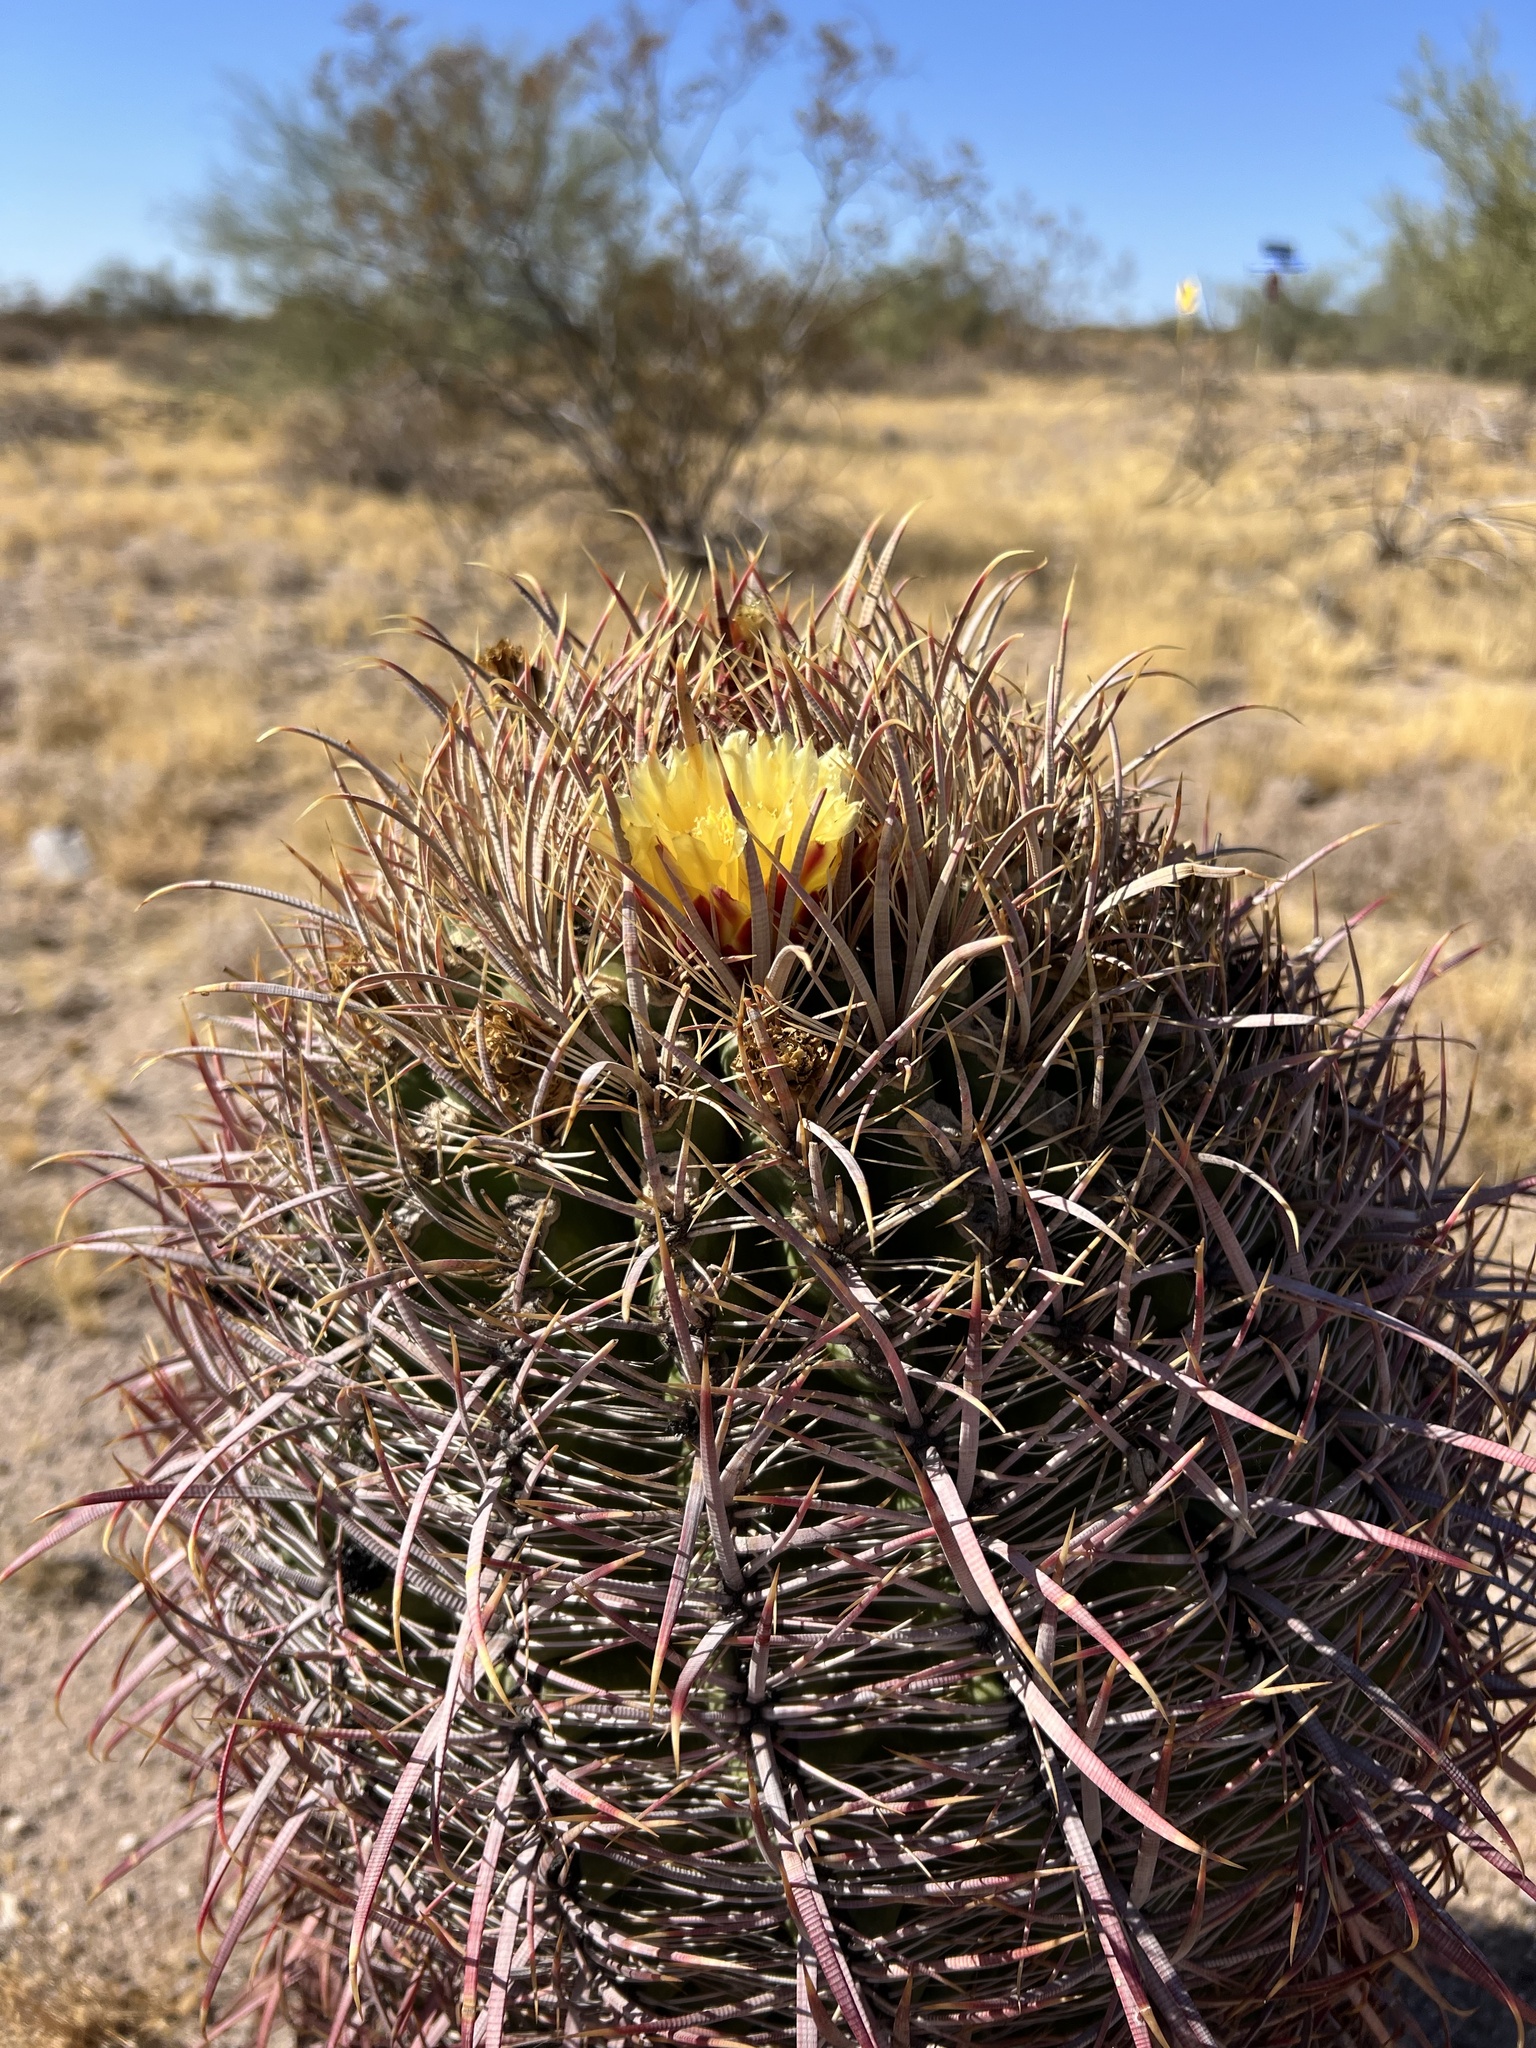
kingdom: Plantae
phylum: Tracheophyta
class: Magnoliopsida
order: Caryophyllales
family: Cactaceae
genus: Ferocactus
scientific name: Ferocactus cylindraceus
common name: California barrel cactus
